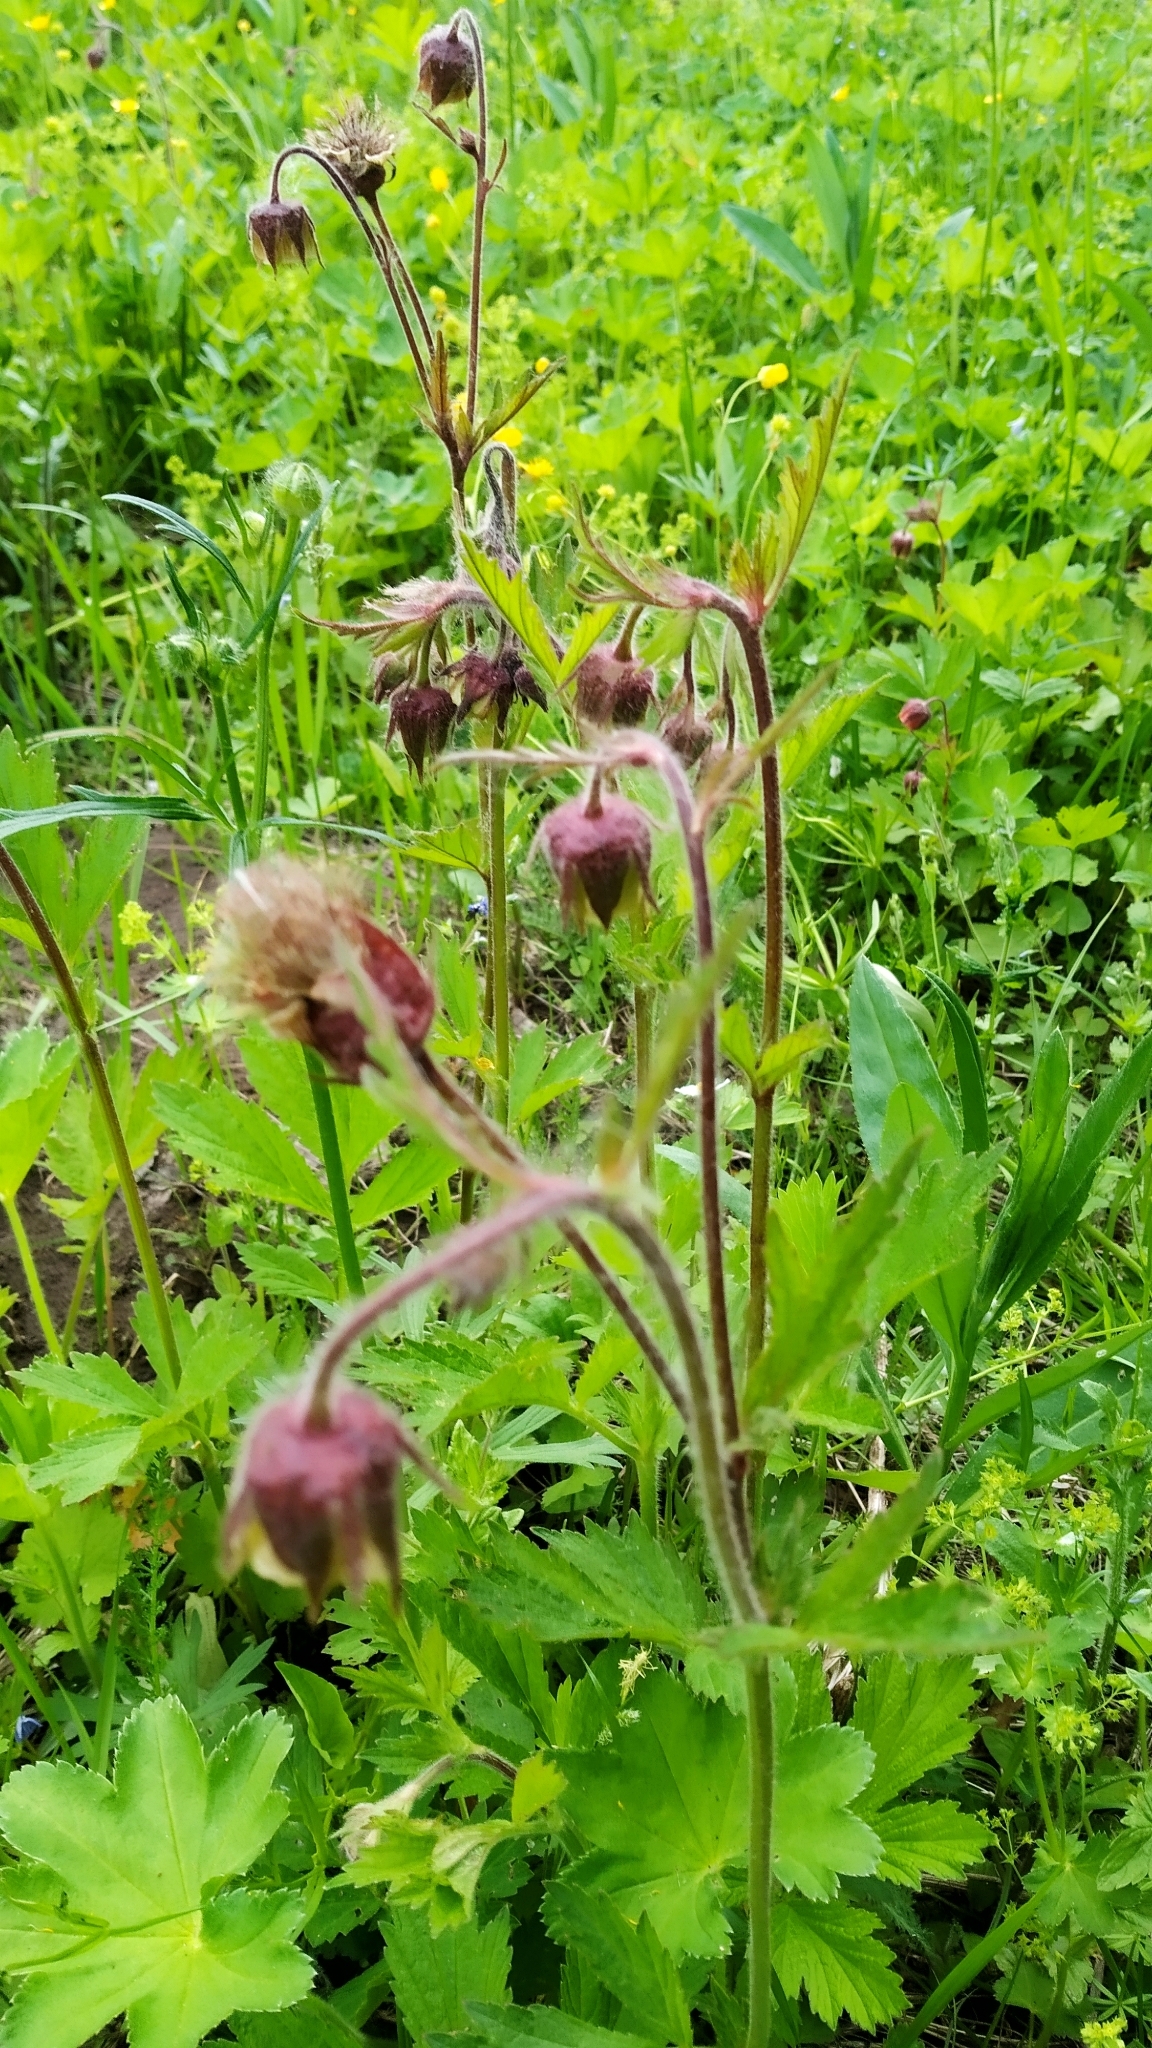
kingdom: Plantae
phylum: Tracheophyta
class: Magnoliopsida
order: Rosales
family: Rosaceae
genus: Geum
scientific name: Geum rivale
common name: Water avens
